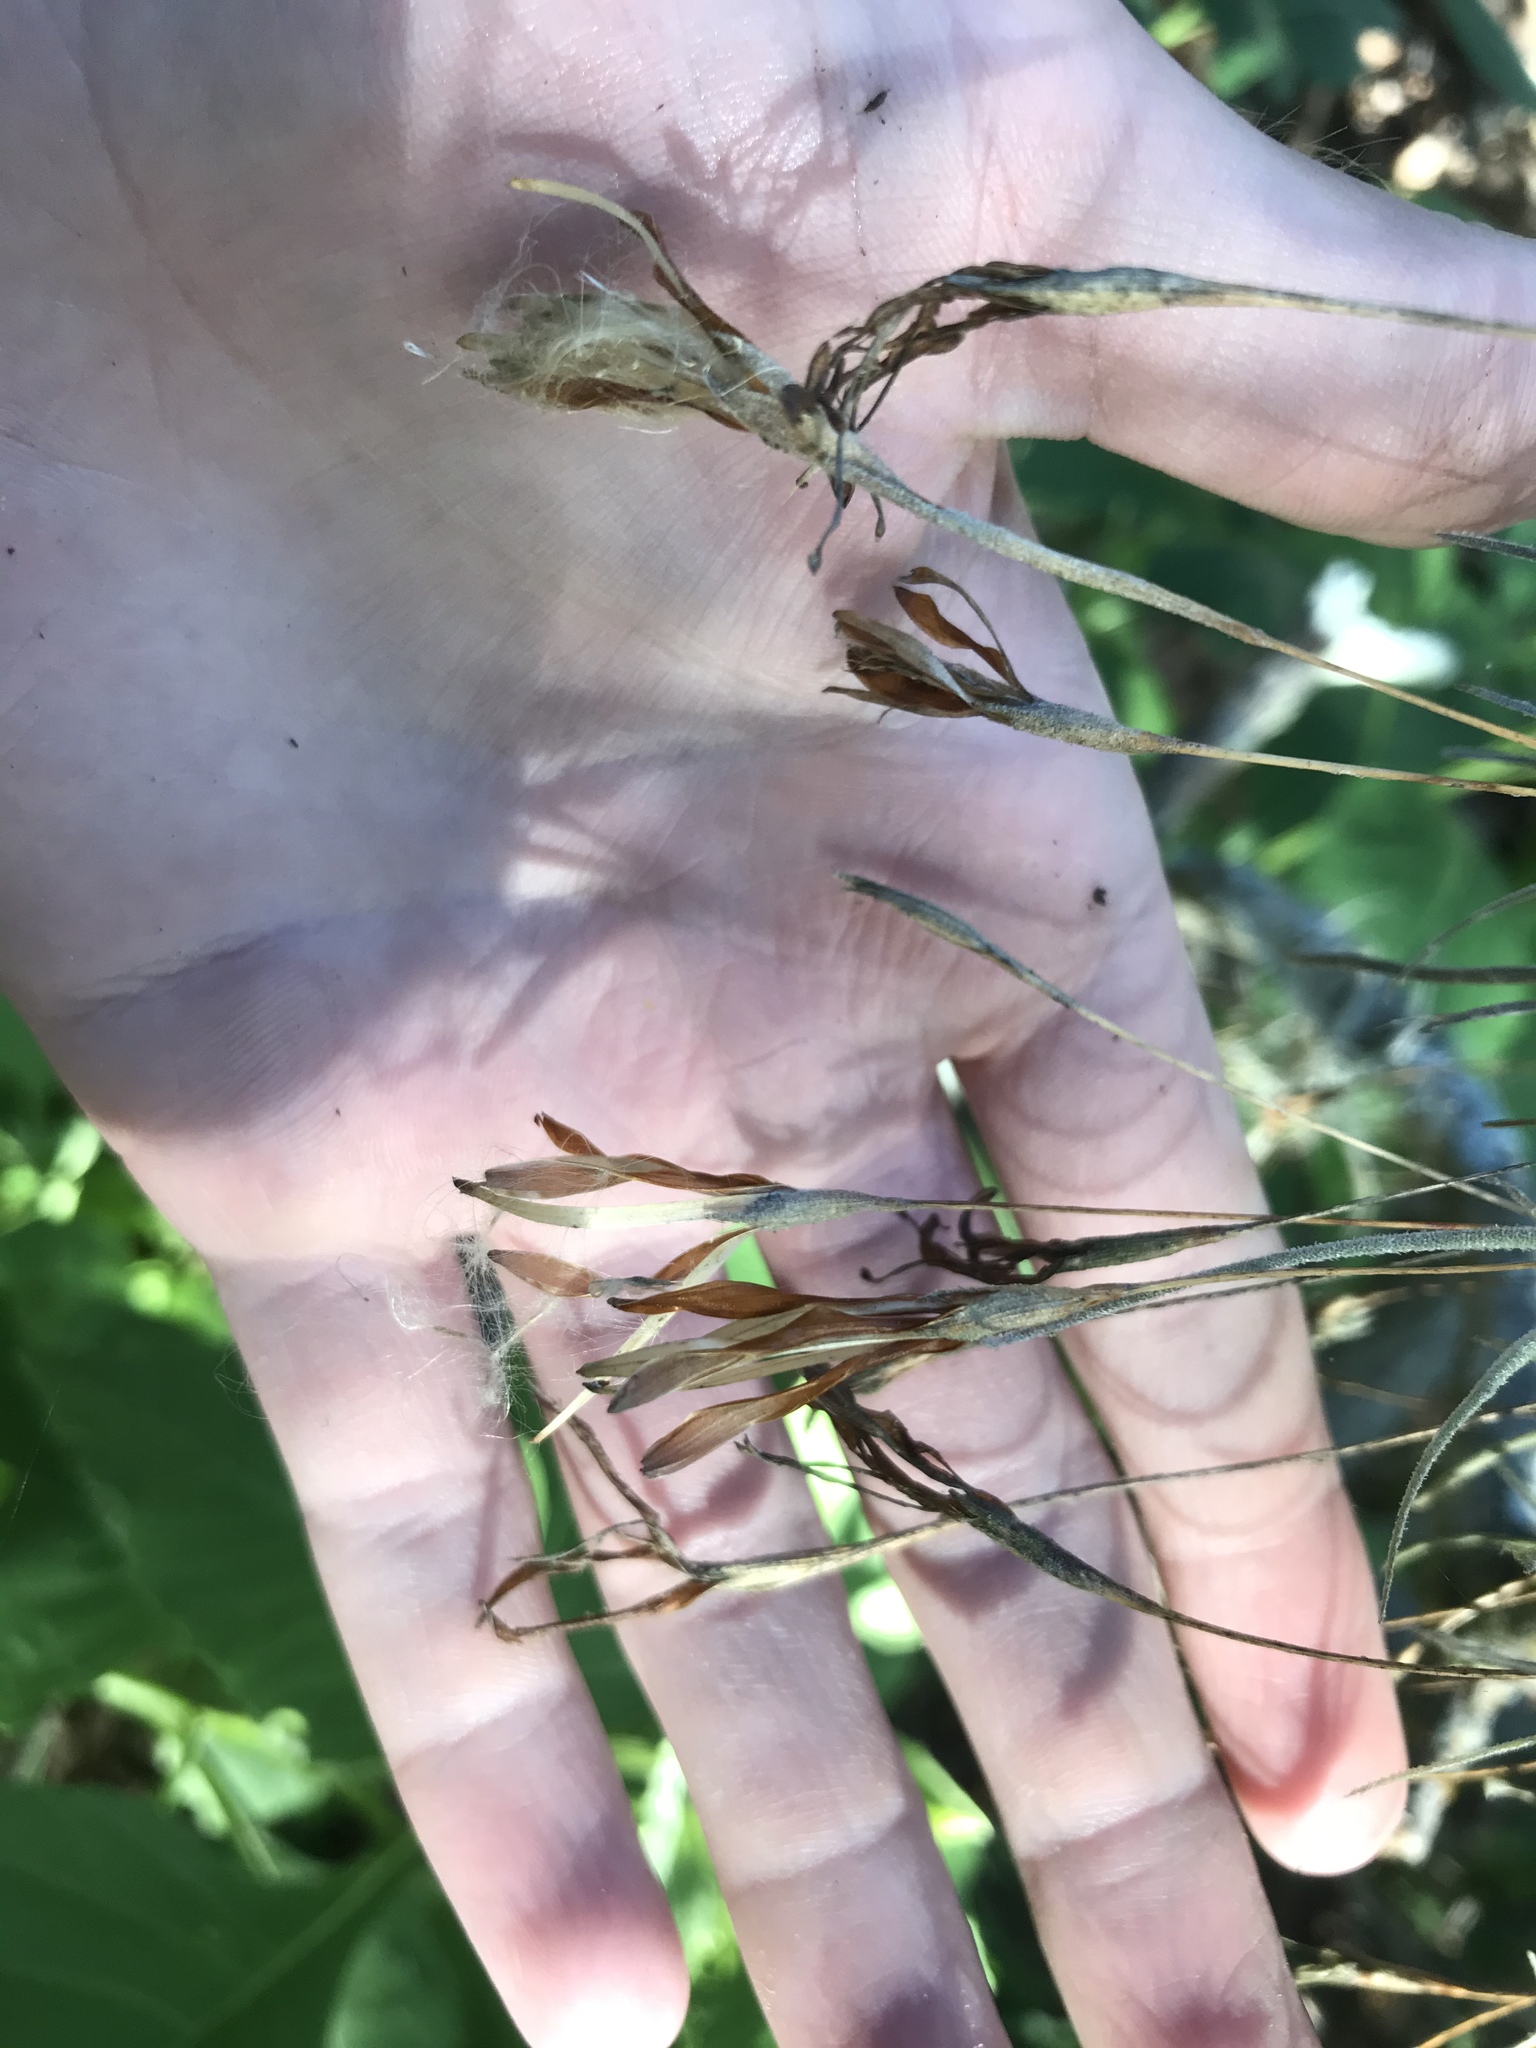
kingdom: Plantae
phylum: Tracheophyta
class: Liliopsida
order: Poales
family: Bromeliaceae
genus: Tillandsia
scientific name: Tillandsia recurvata
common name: Small ballmoss
